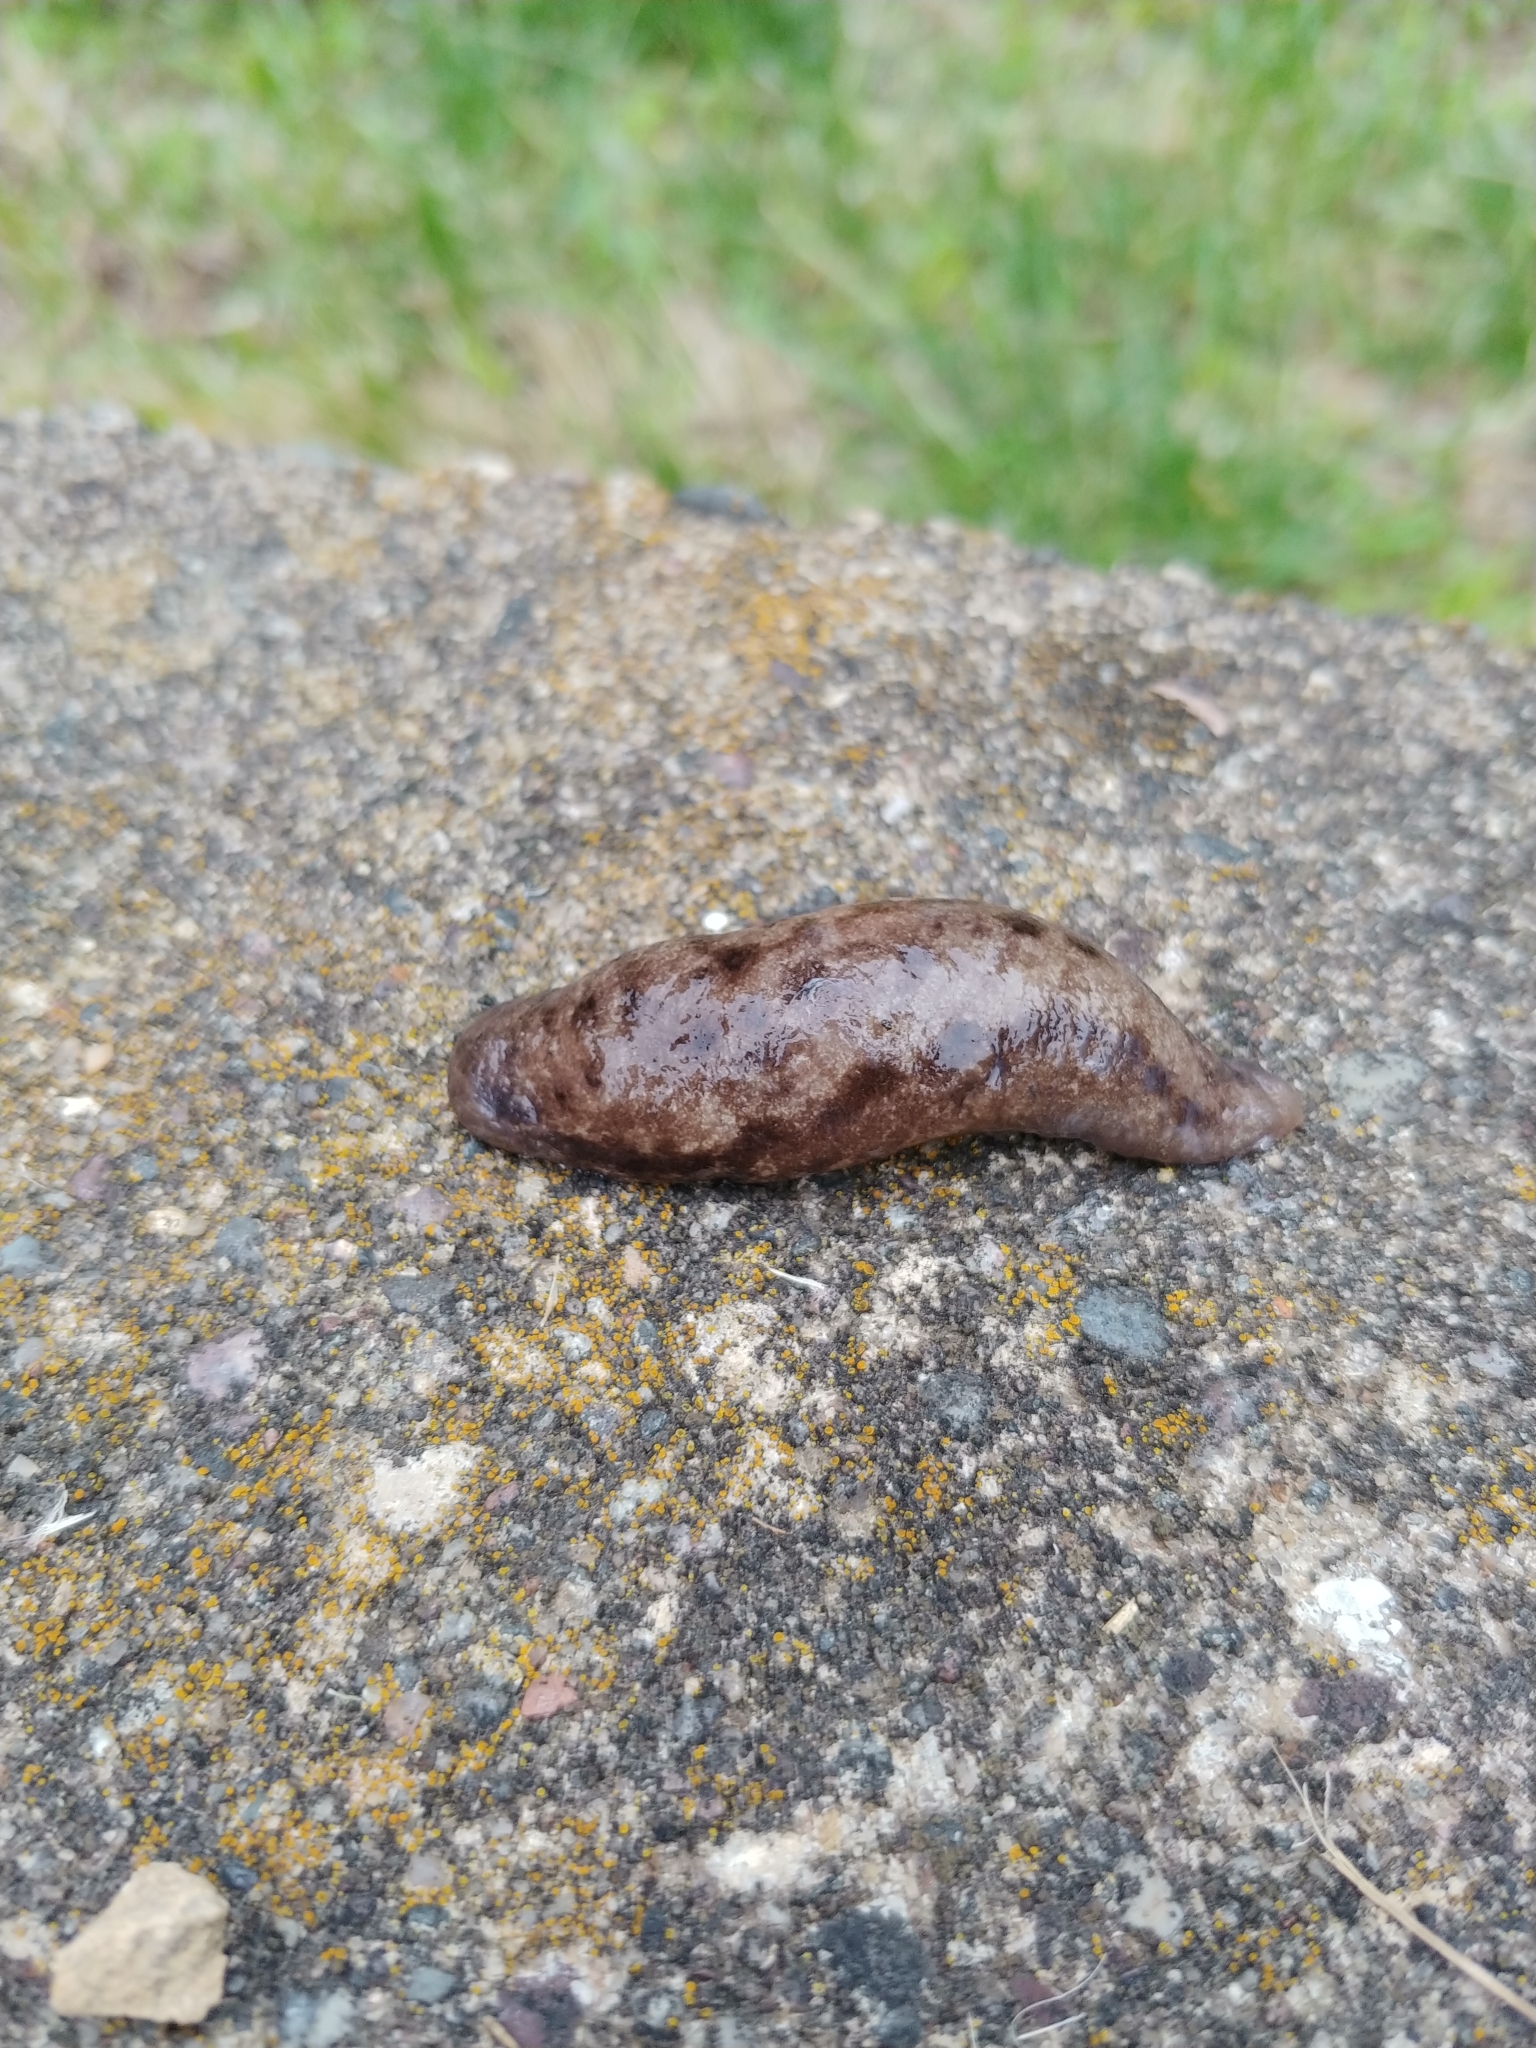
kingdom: Animalia
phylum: Mollusca
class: Gastropoda
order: Stylommatophora
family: Philomycidae
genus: Megapallifera
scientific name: Megapallifera mutabilis
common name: Changeable mantleslug
